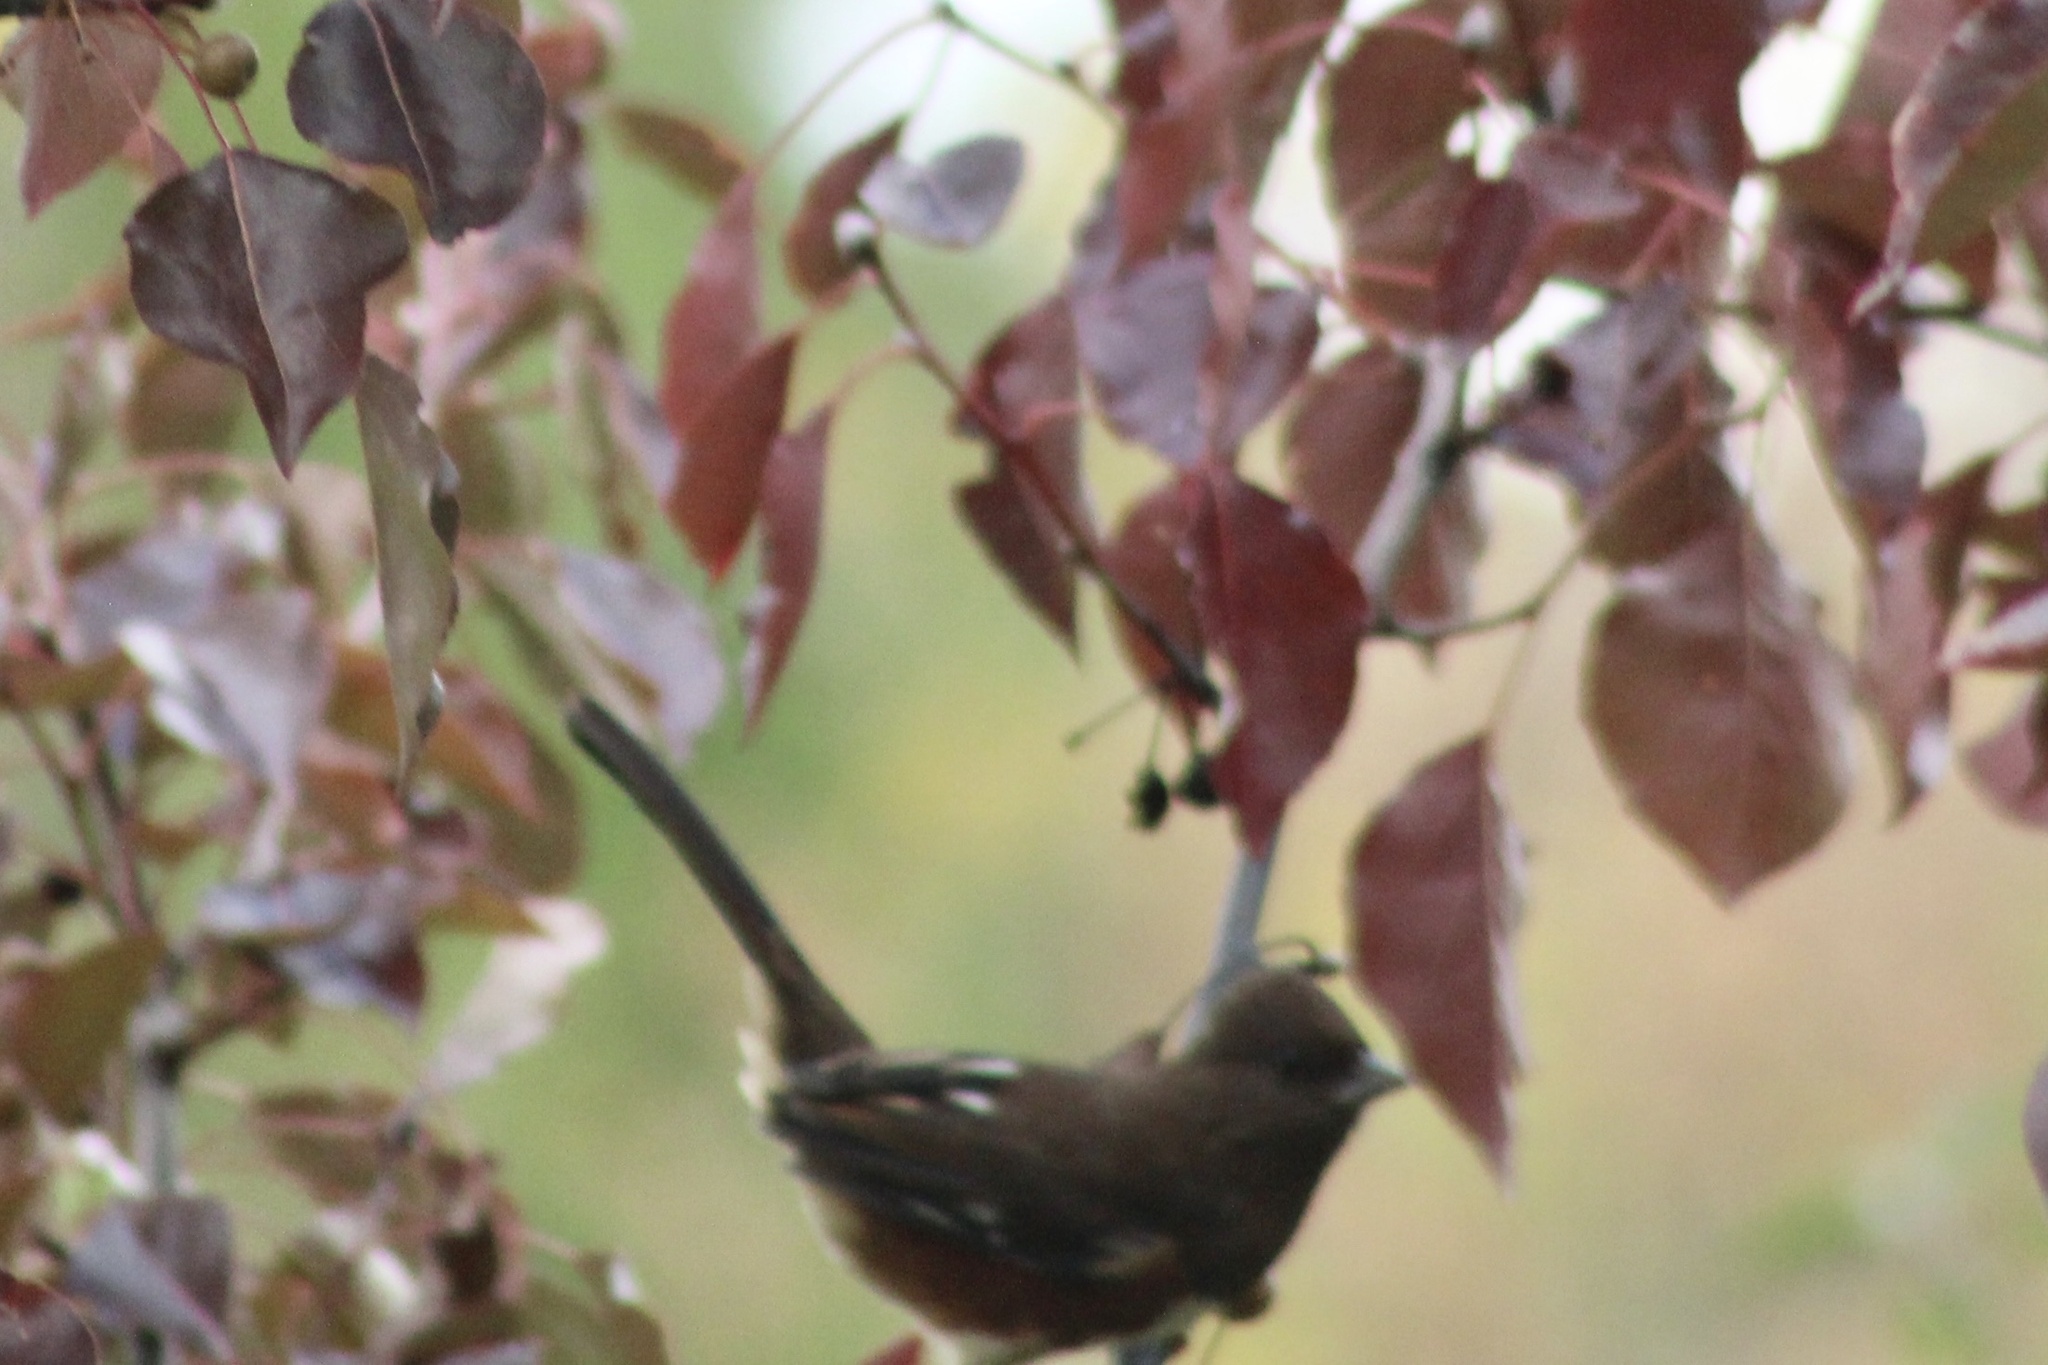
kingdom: Animalia
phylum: Chordata
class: Aves
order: Passeriformes
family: Passerellidae
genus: Pipilo
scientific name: Pipilo erythrophthalmus
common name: Eastern towhee
